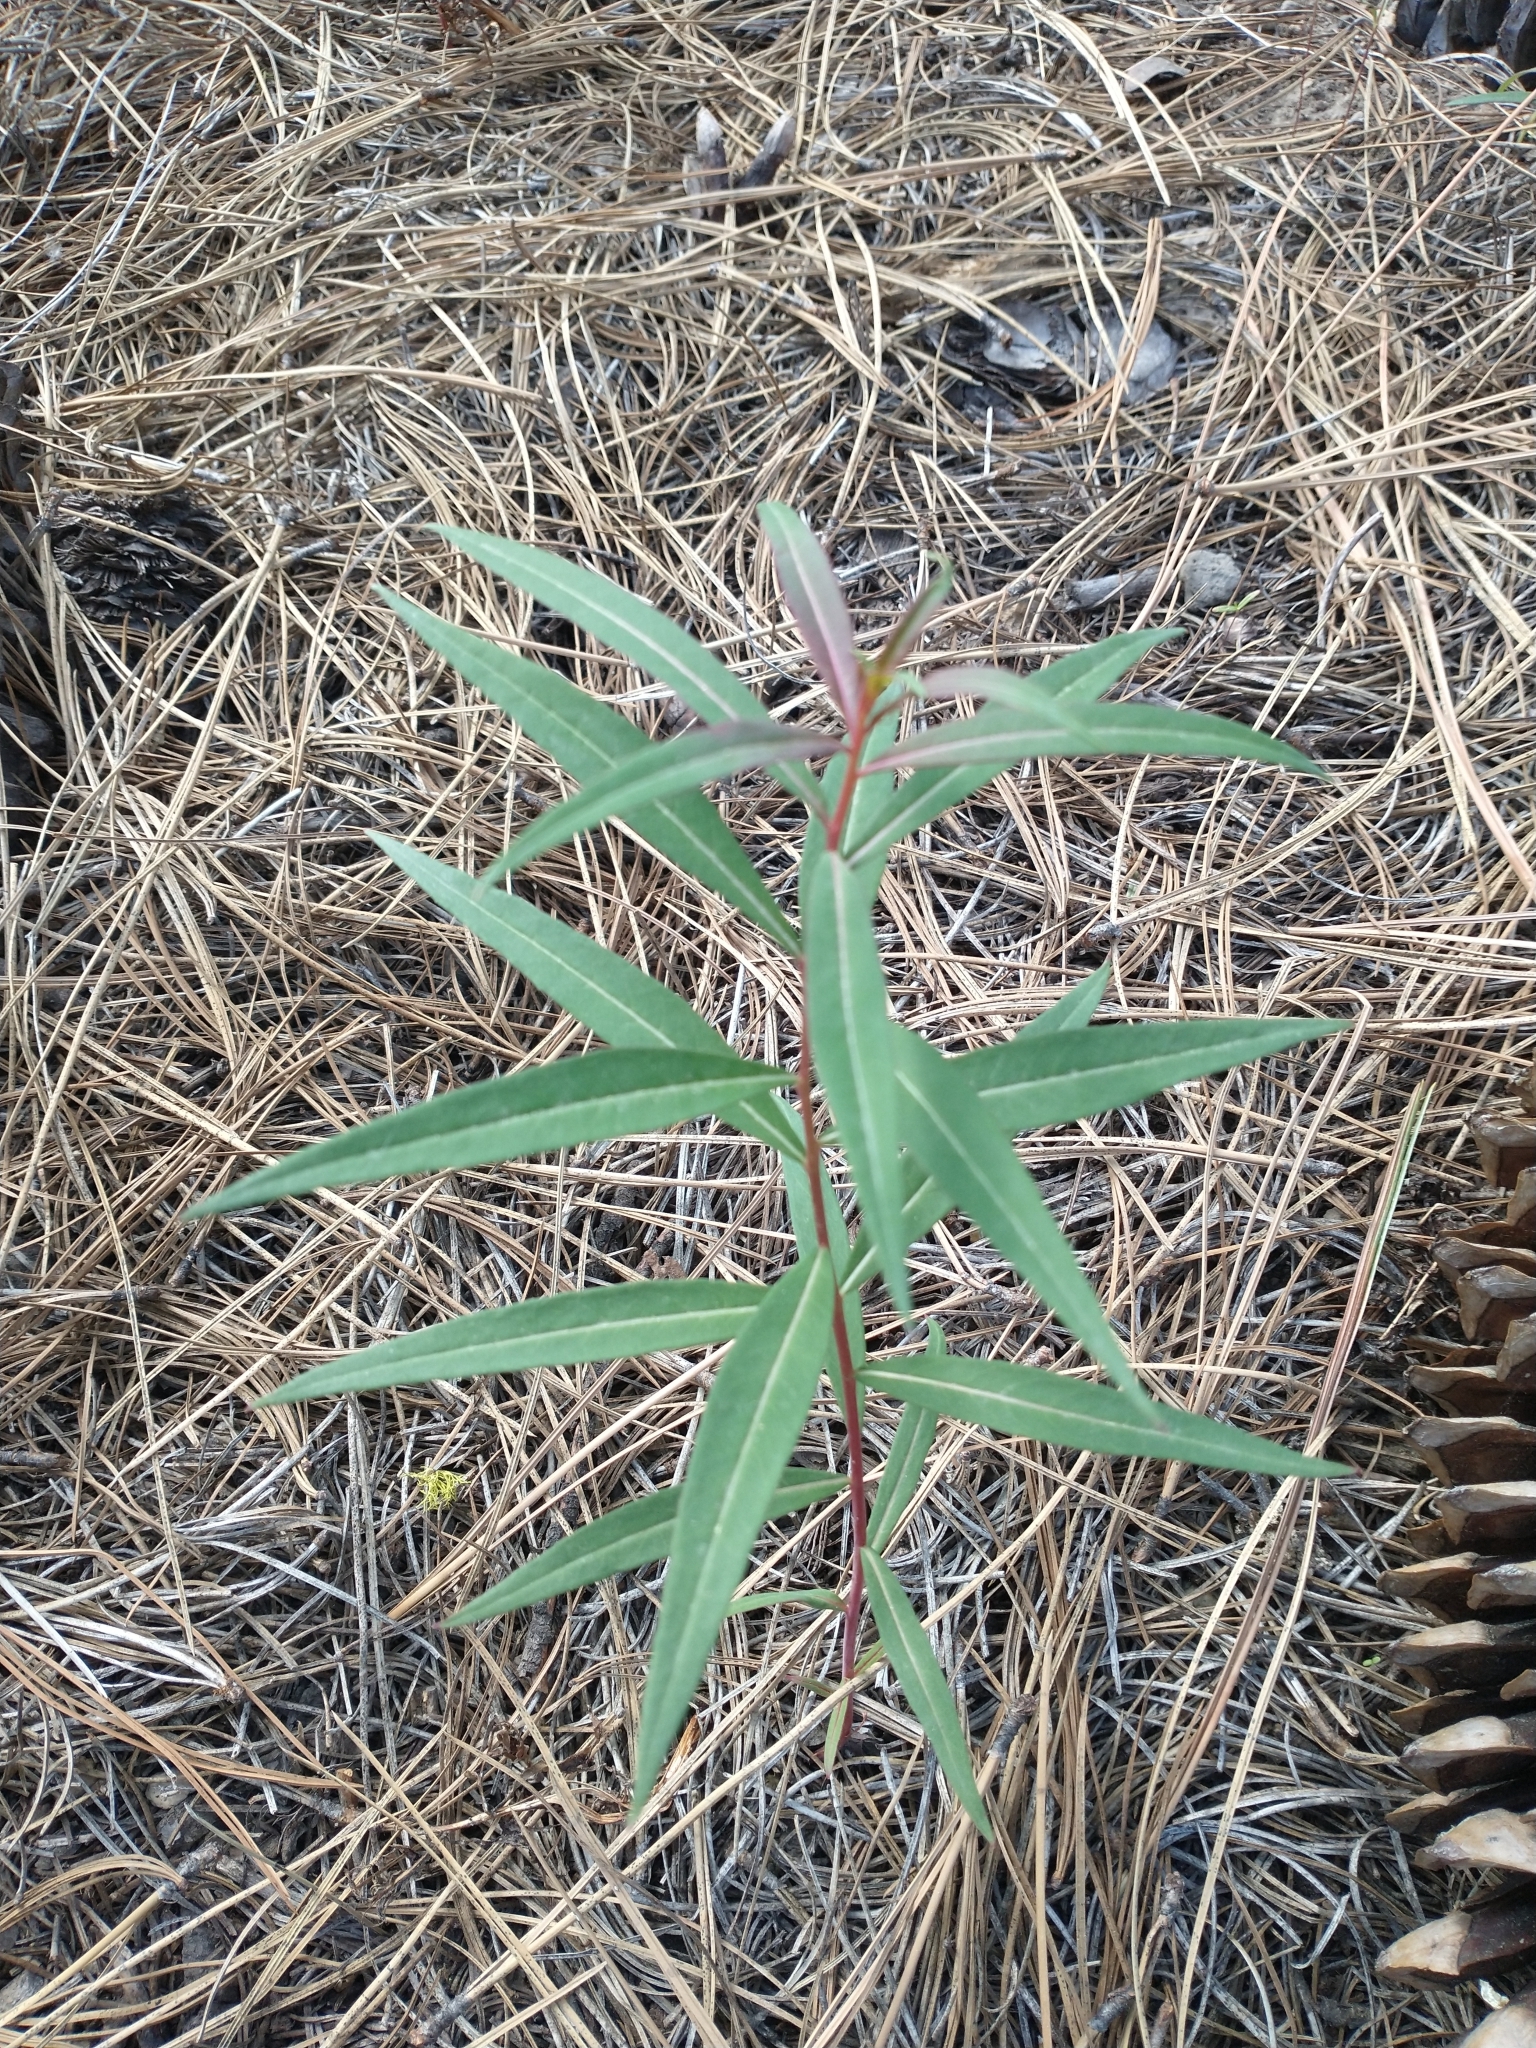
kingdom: Plantae
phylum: Tracheophyta
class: Magnoliopsida
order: Myrtales
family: Onagraceae
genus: Chamaenerion
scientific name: Chamaenerion angustifolium
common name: Fireweed
